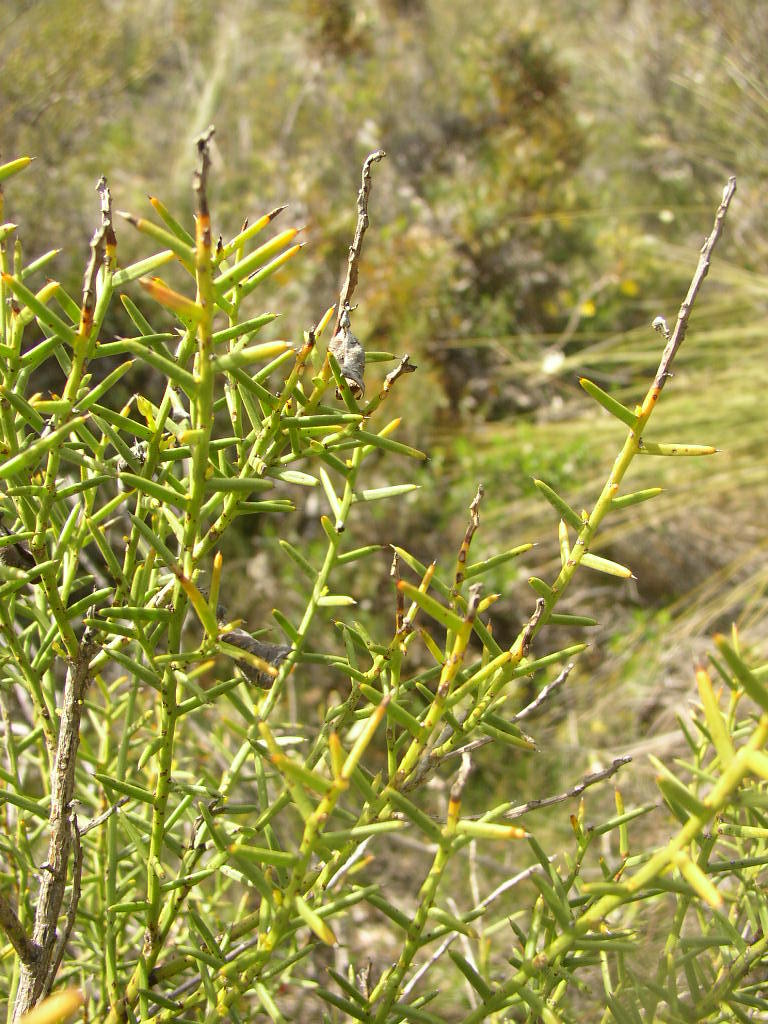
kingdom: Plantae
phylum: Tracheophyta
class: Magnoliopsida
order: Fabales
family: Fabaceae
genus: Daviesia
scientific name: Daviesia preissii
